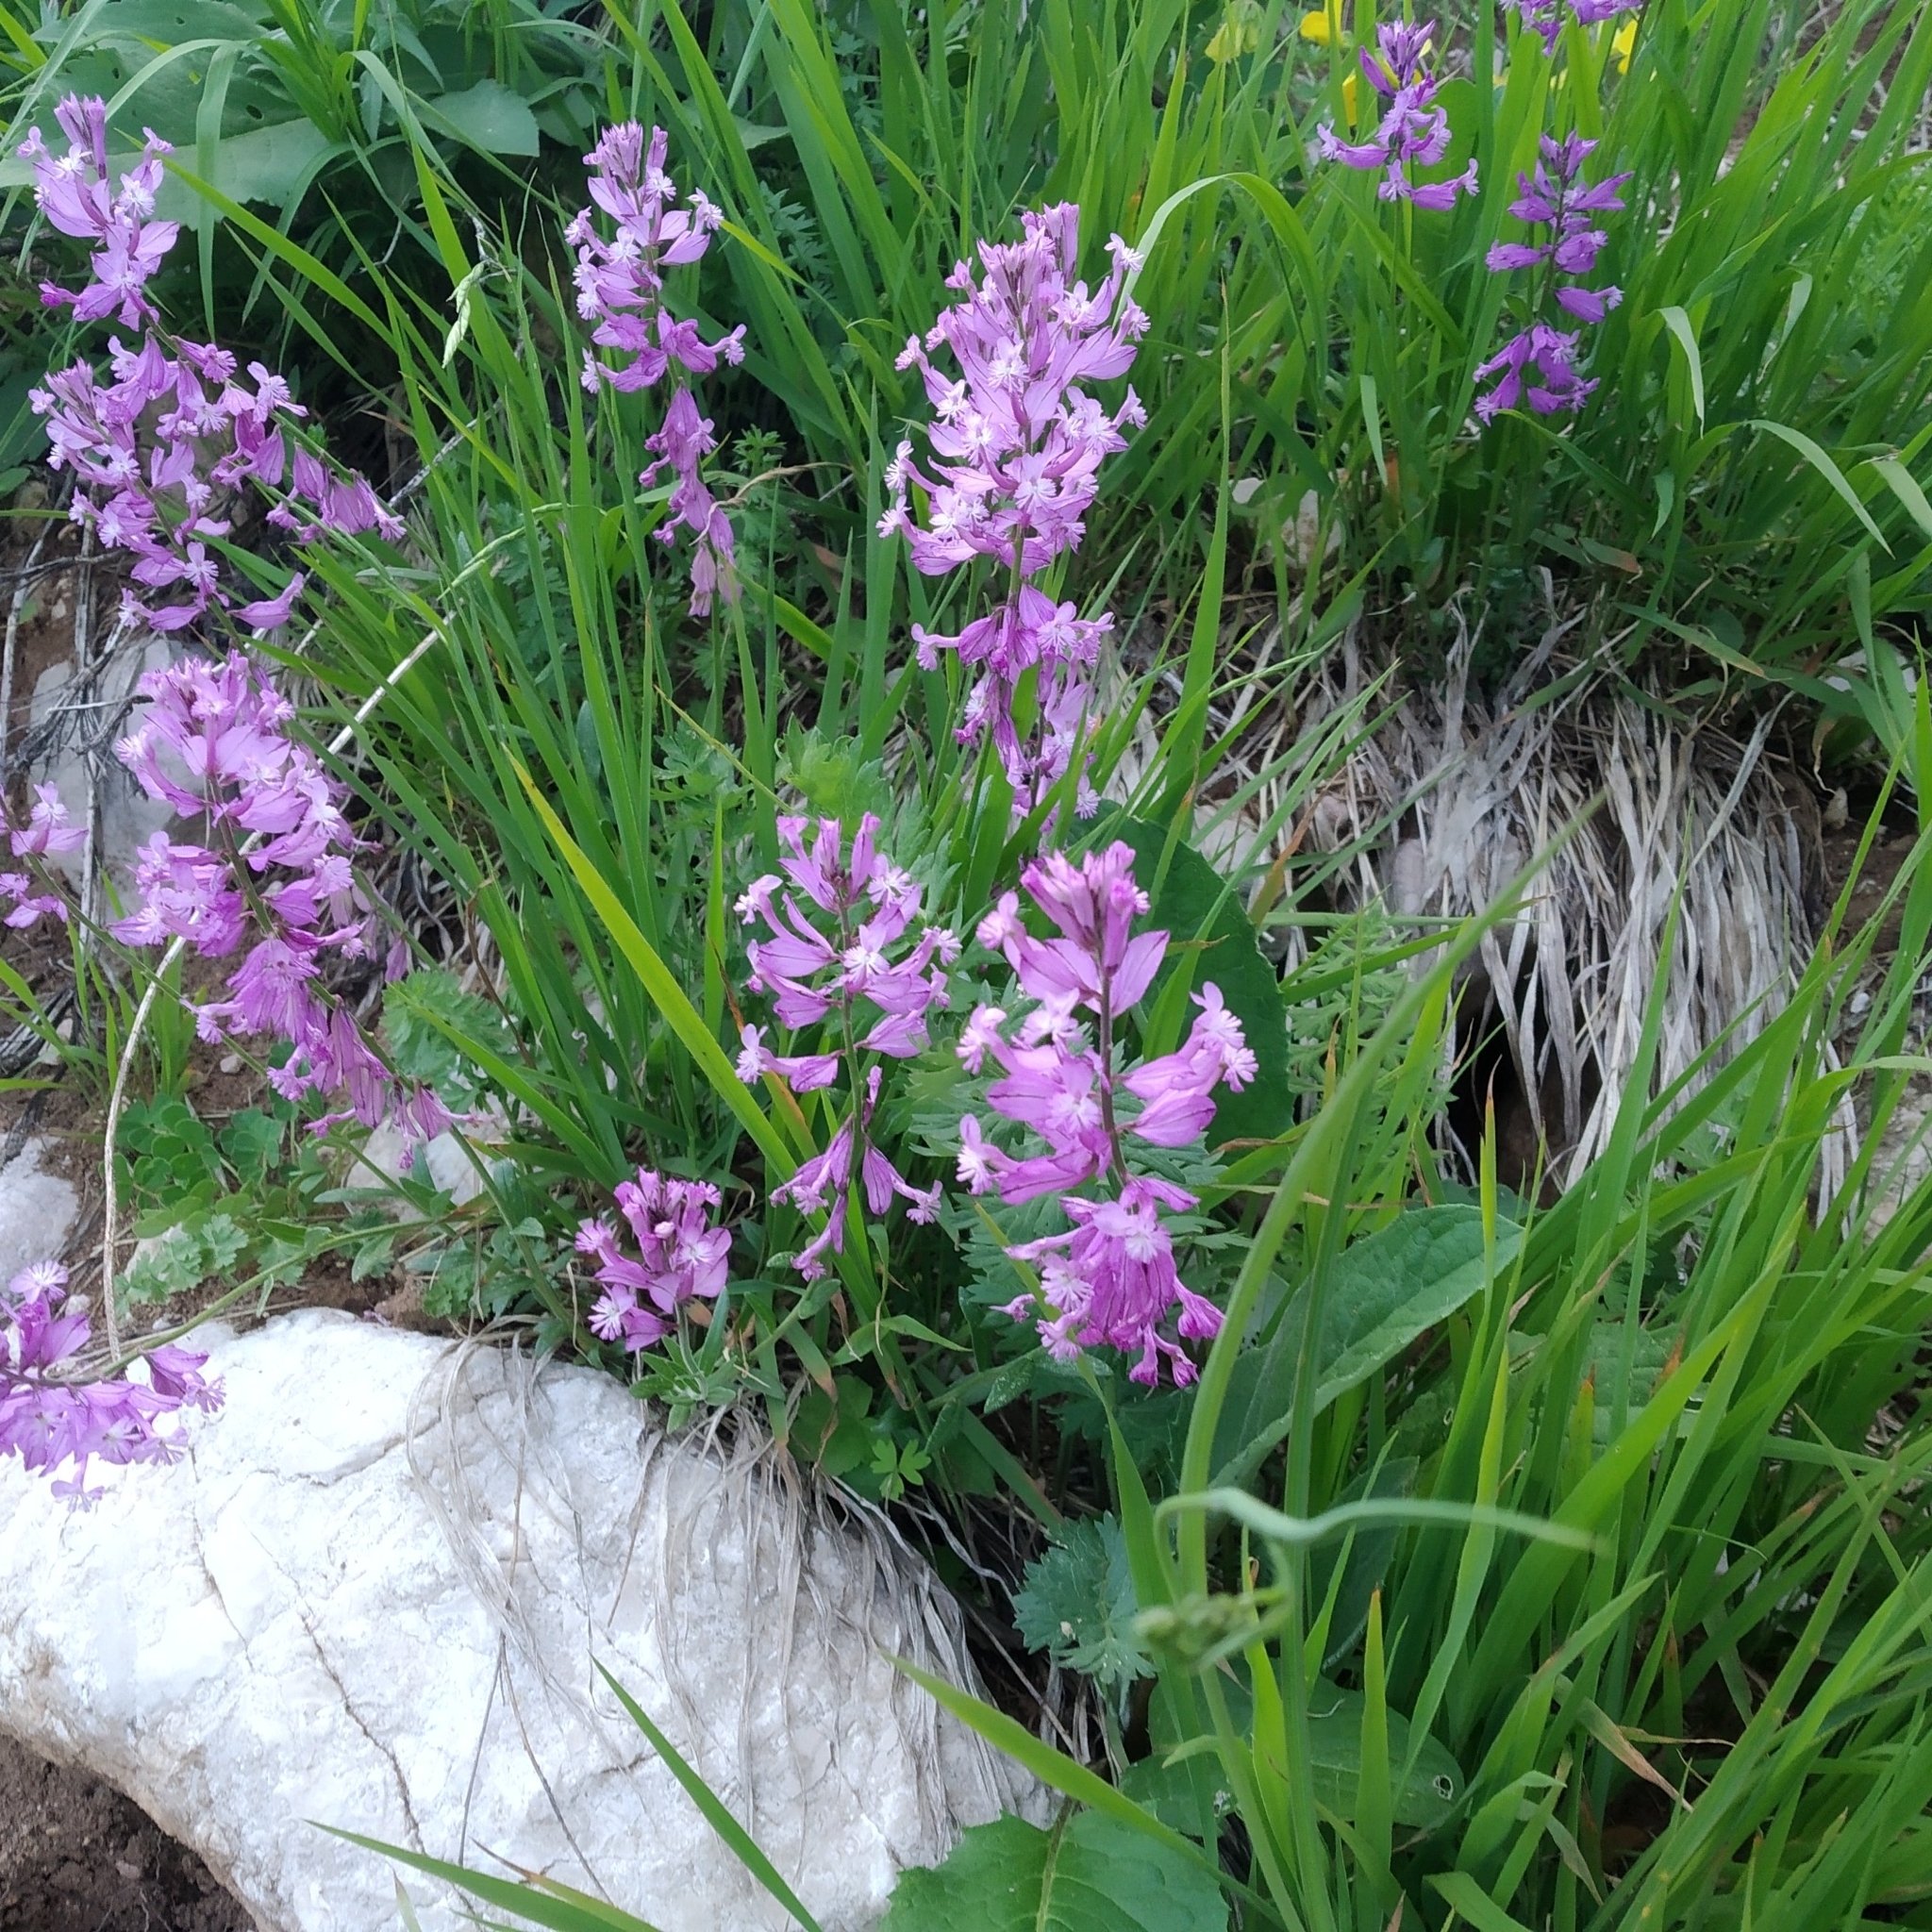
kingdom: Plantae
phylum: Tracheophyta
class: Magnoliopsida
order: Fabales
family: Polygalaceae
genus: Polygala
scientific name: Polygala major
